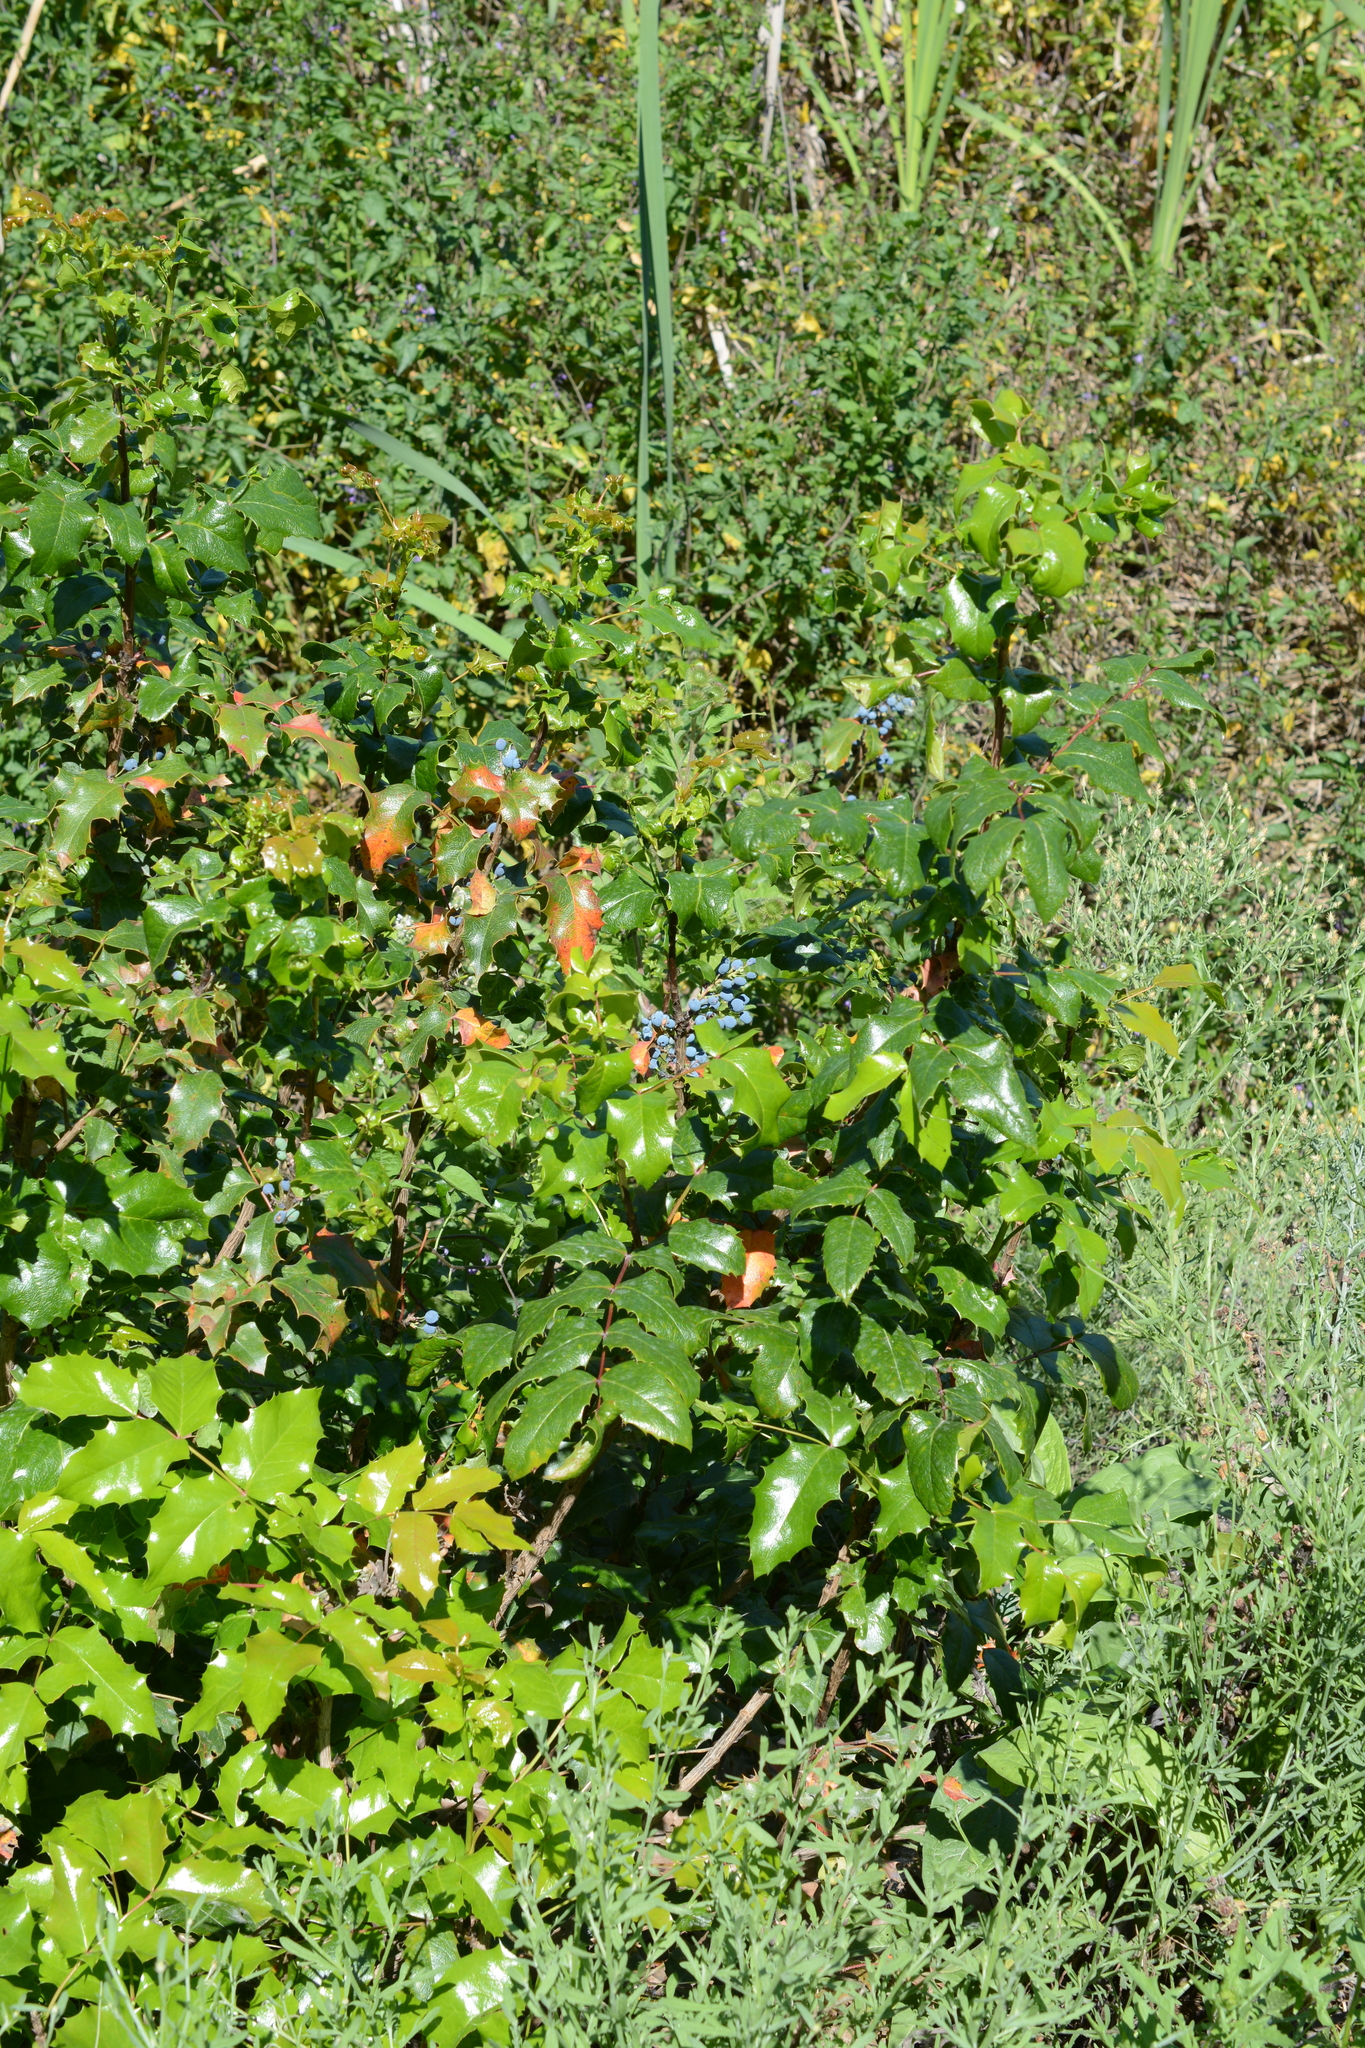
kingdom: Plantae
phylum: Tracheophyta
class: Magnoliopsida
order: Ranunculales
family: Berberidaceae
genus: Mahonia
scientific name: Mahonia aquifolium
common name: Oregon-grape
